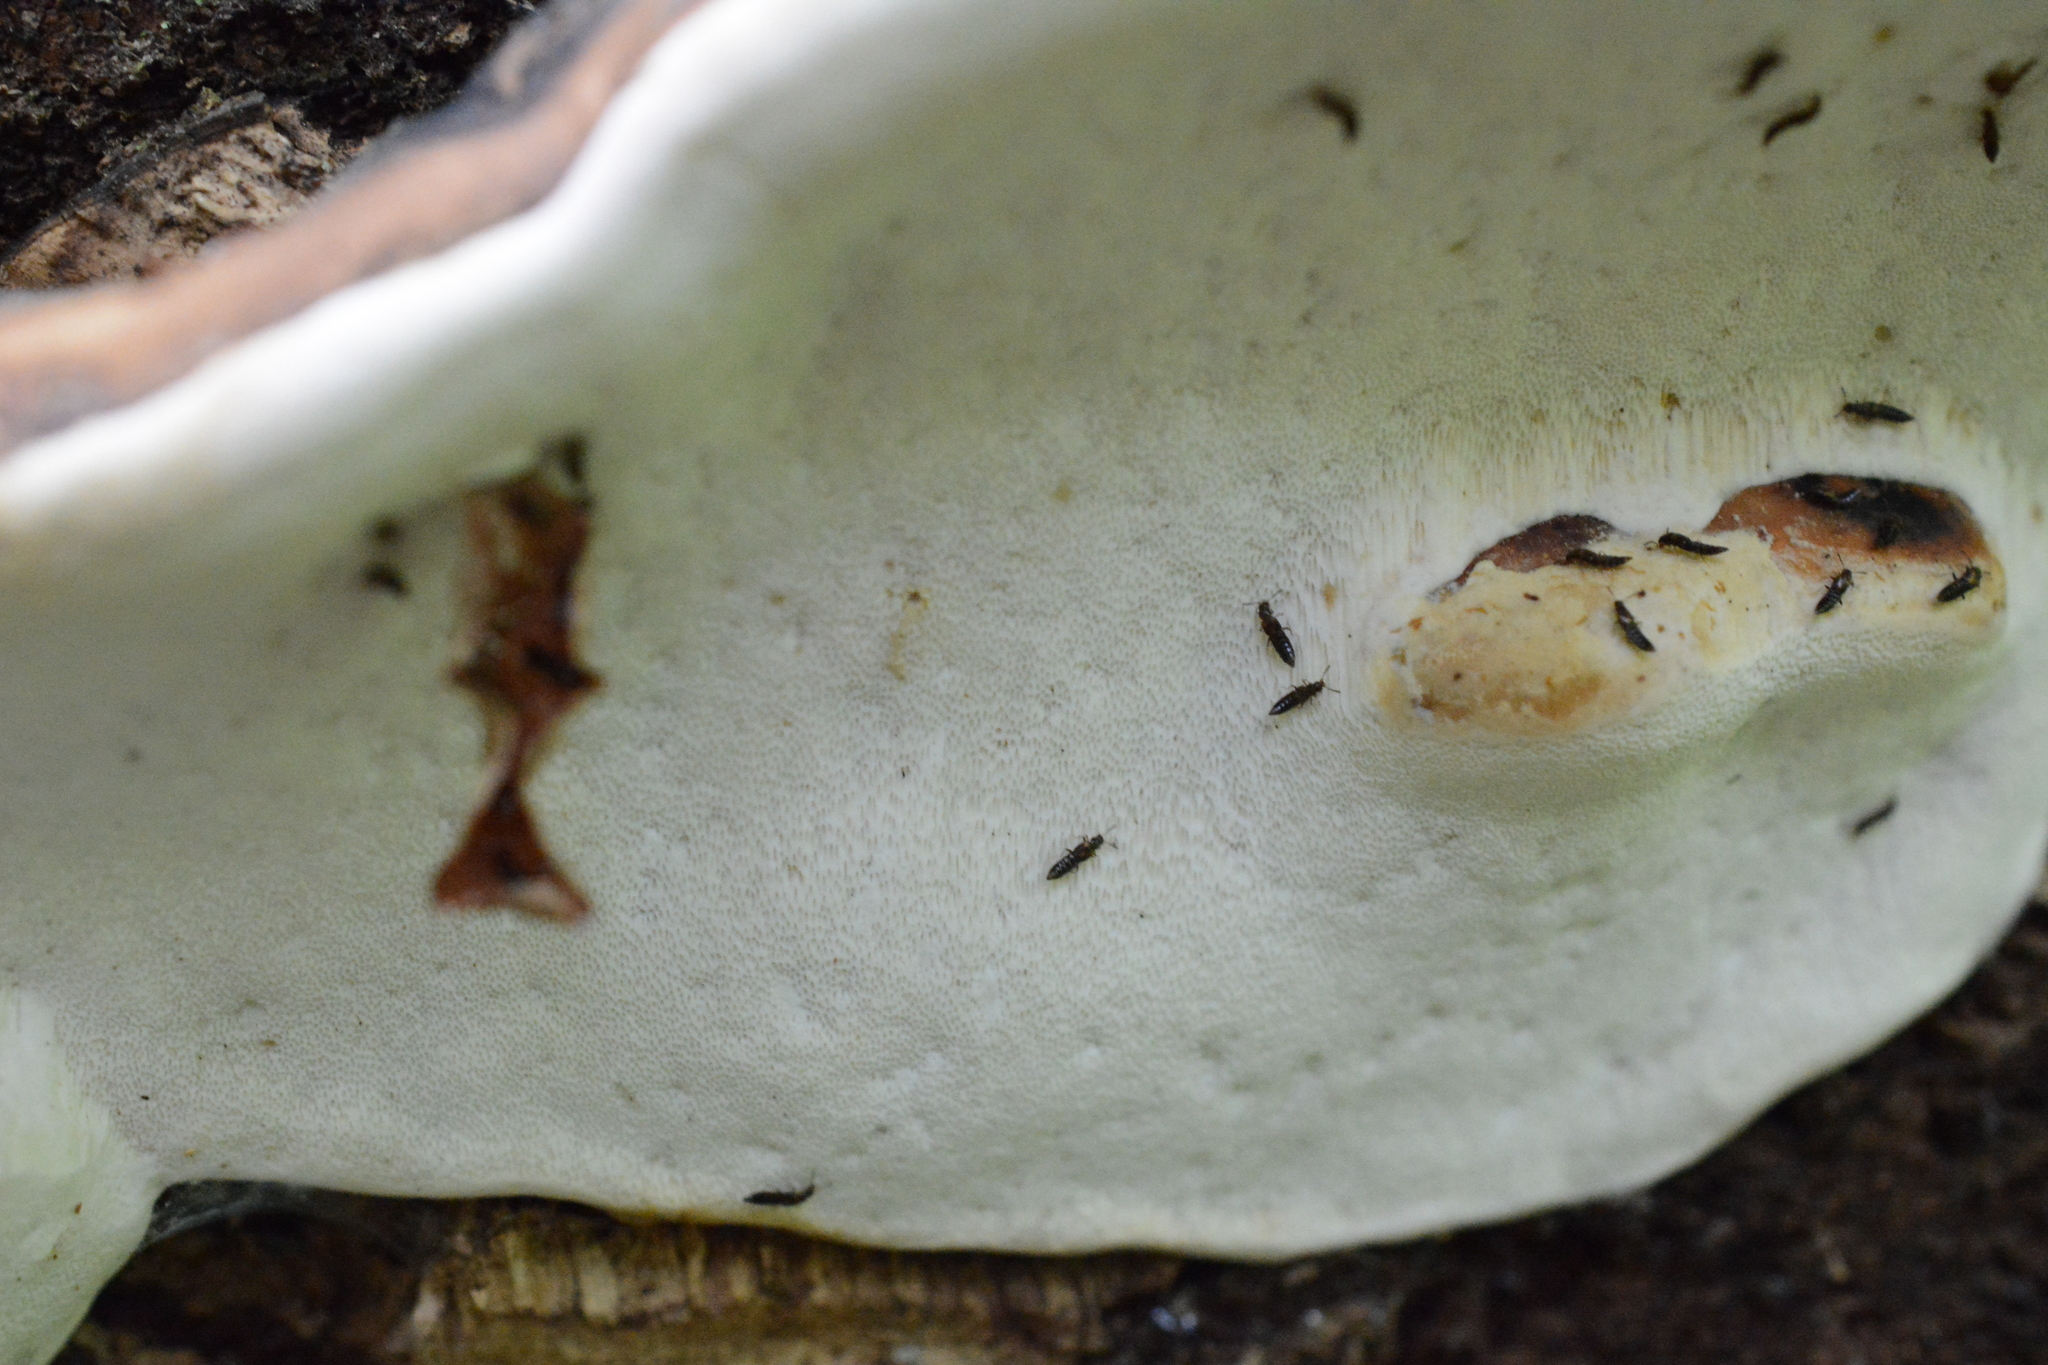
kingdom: Fungi
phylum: Basidiomycota
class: Agaricomycetes
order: Polyporales
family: Fomitopsidaceae
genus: Fomitopsis
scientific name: Fomitopsis mounceae
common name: Northern red belt
